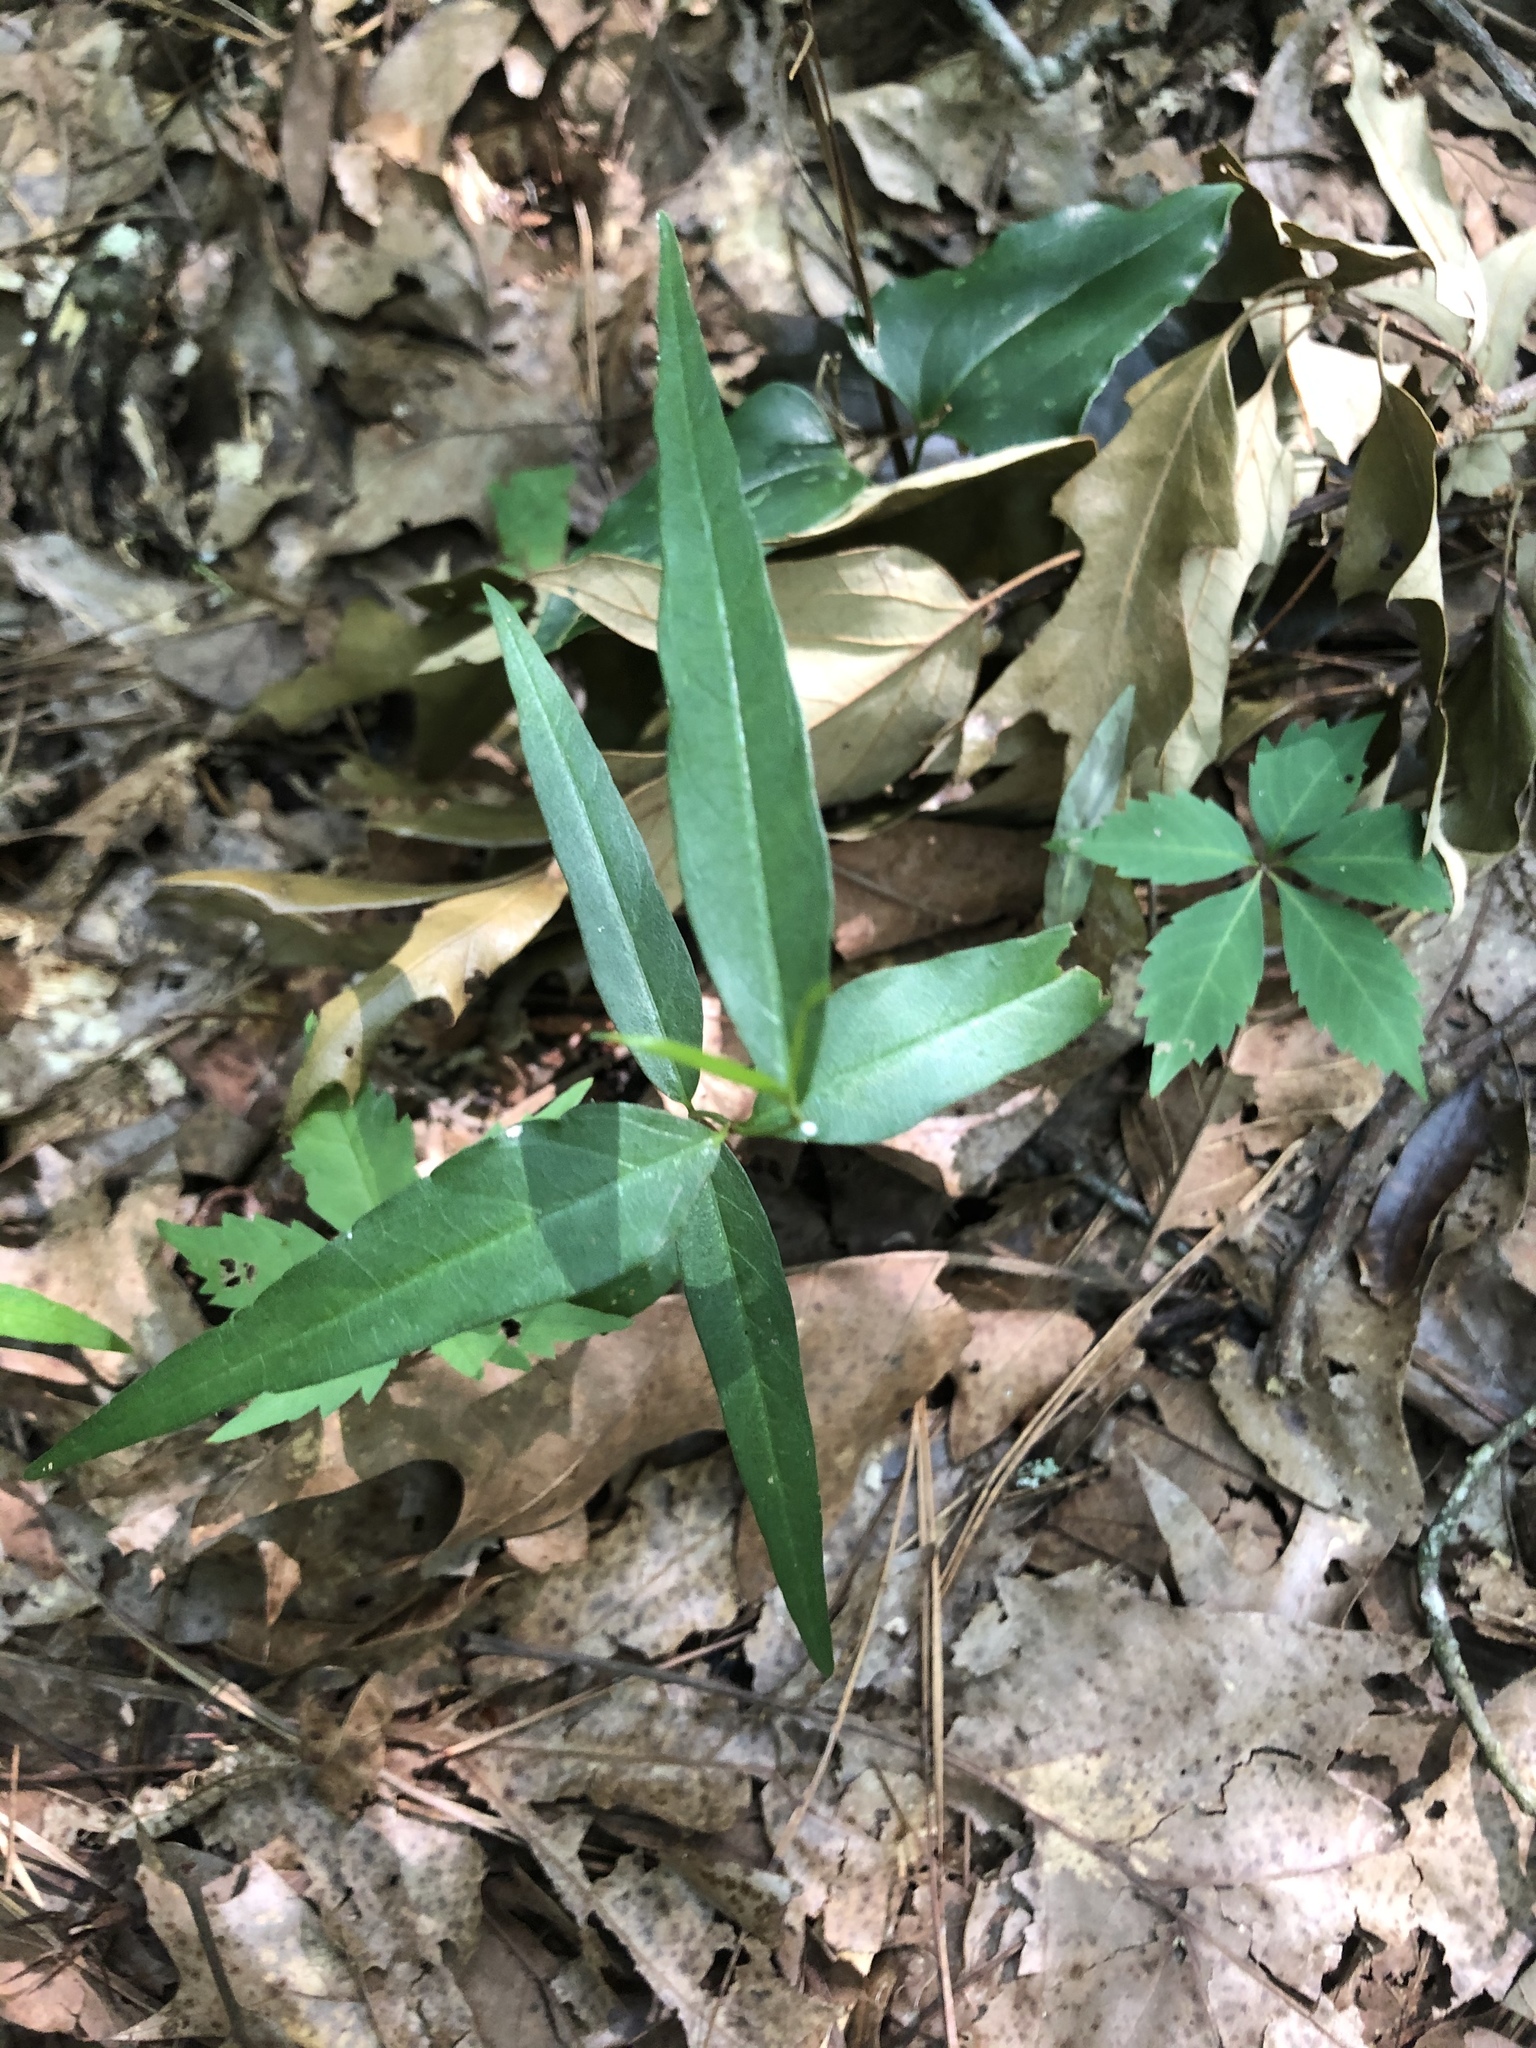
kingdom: Plantae
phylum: Tracheophyta
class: Magnoliopsida
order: Gentianales
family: Apocynaceae
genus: Thyrsanthella
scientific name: Thyrsanthella difformis
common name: Climbing dogbane
